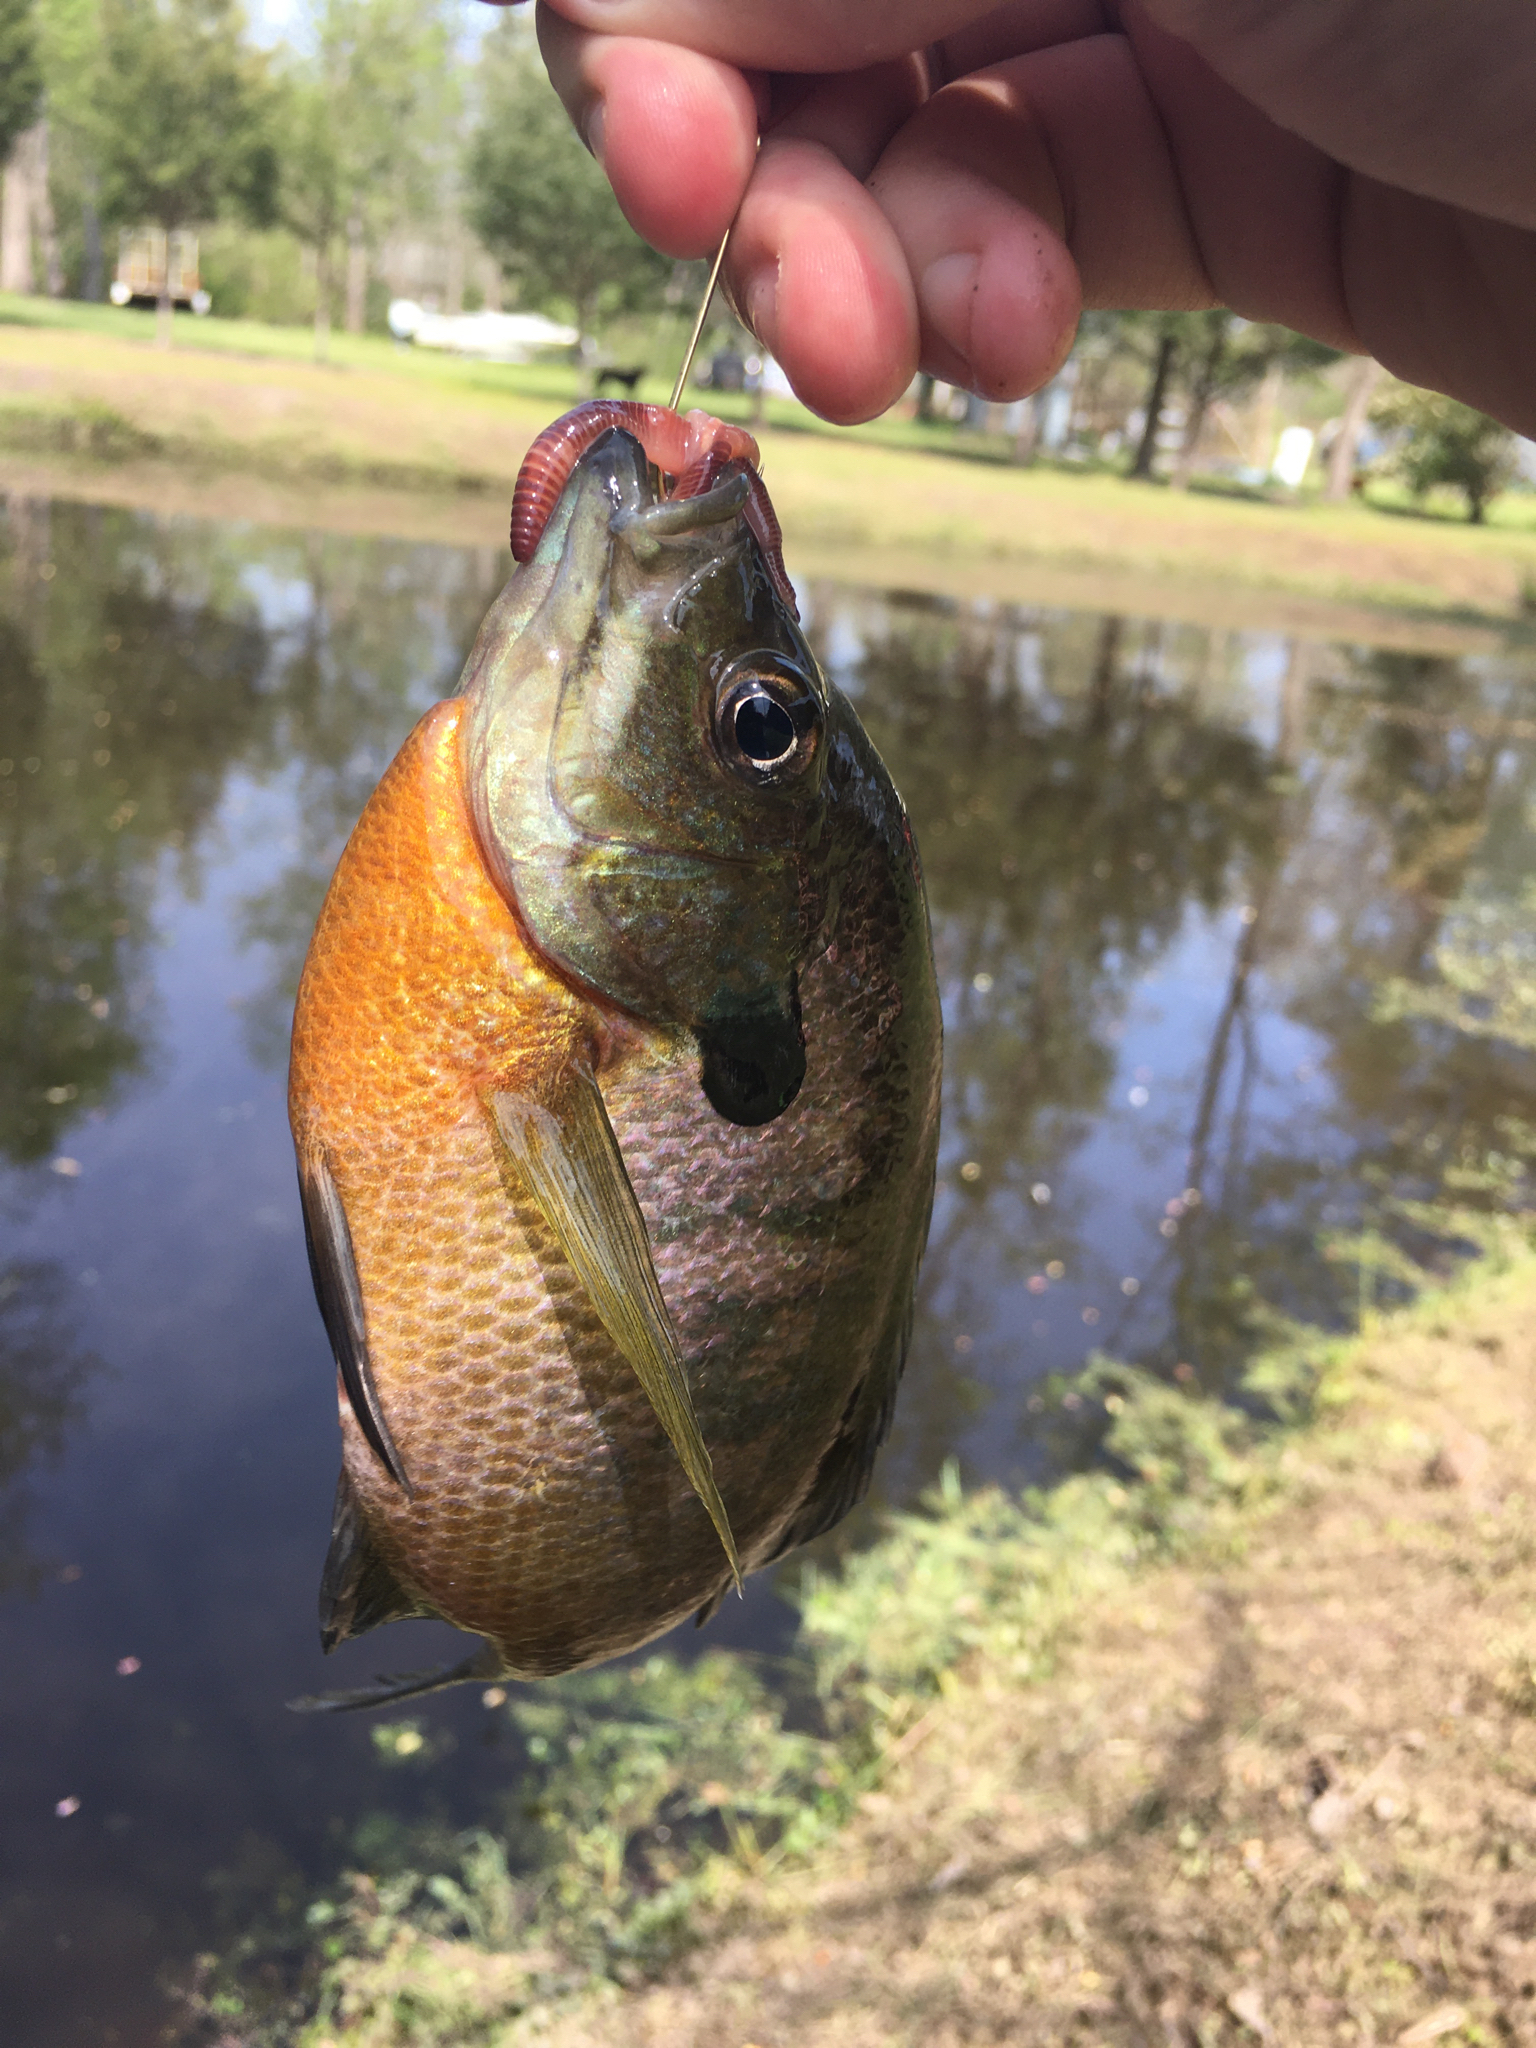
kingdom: Animalia
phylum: Chordata
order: Perciformes
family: Centrarchidae
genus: Lepomis
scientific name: Lepomis macrochirus
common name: Bluegill
